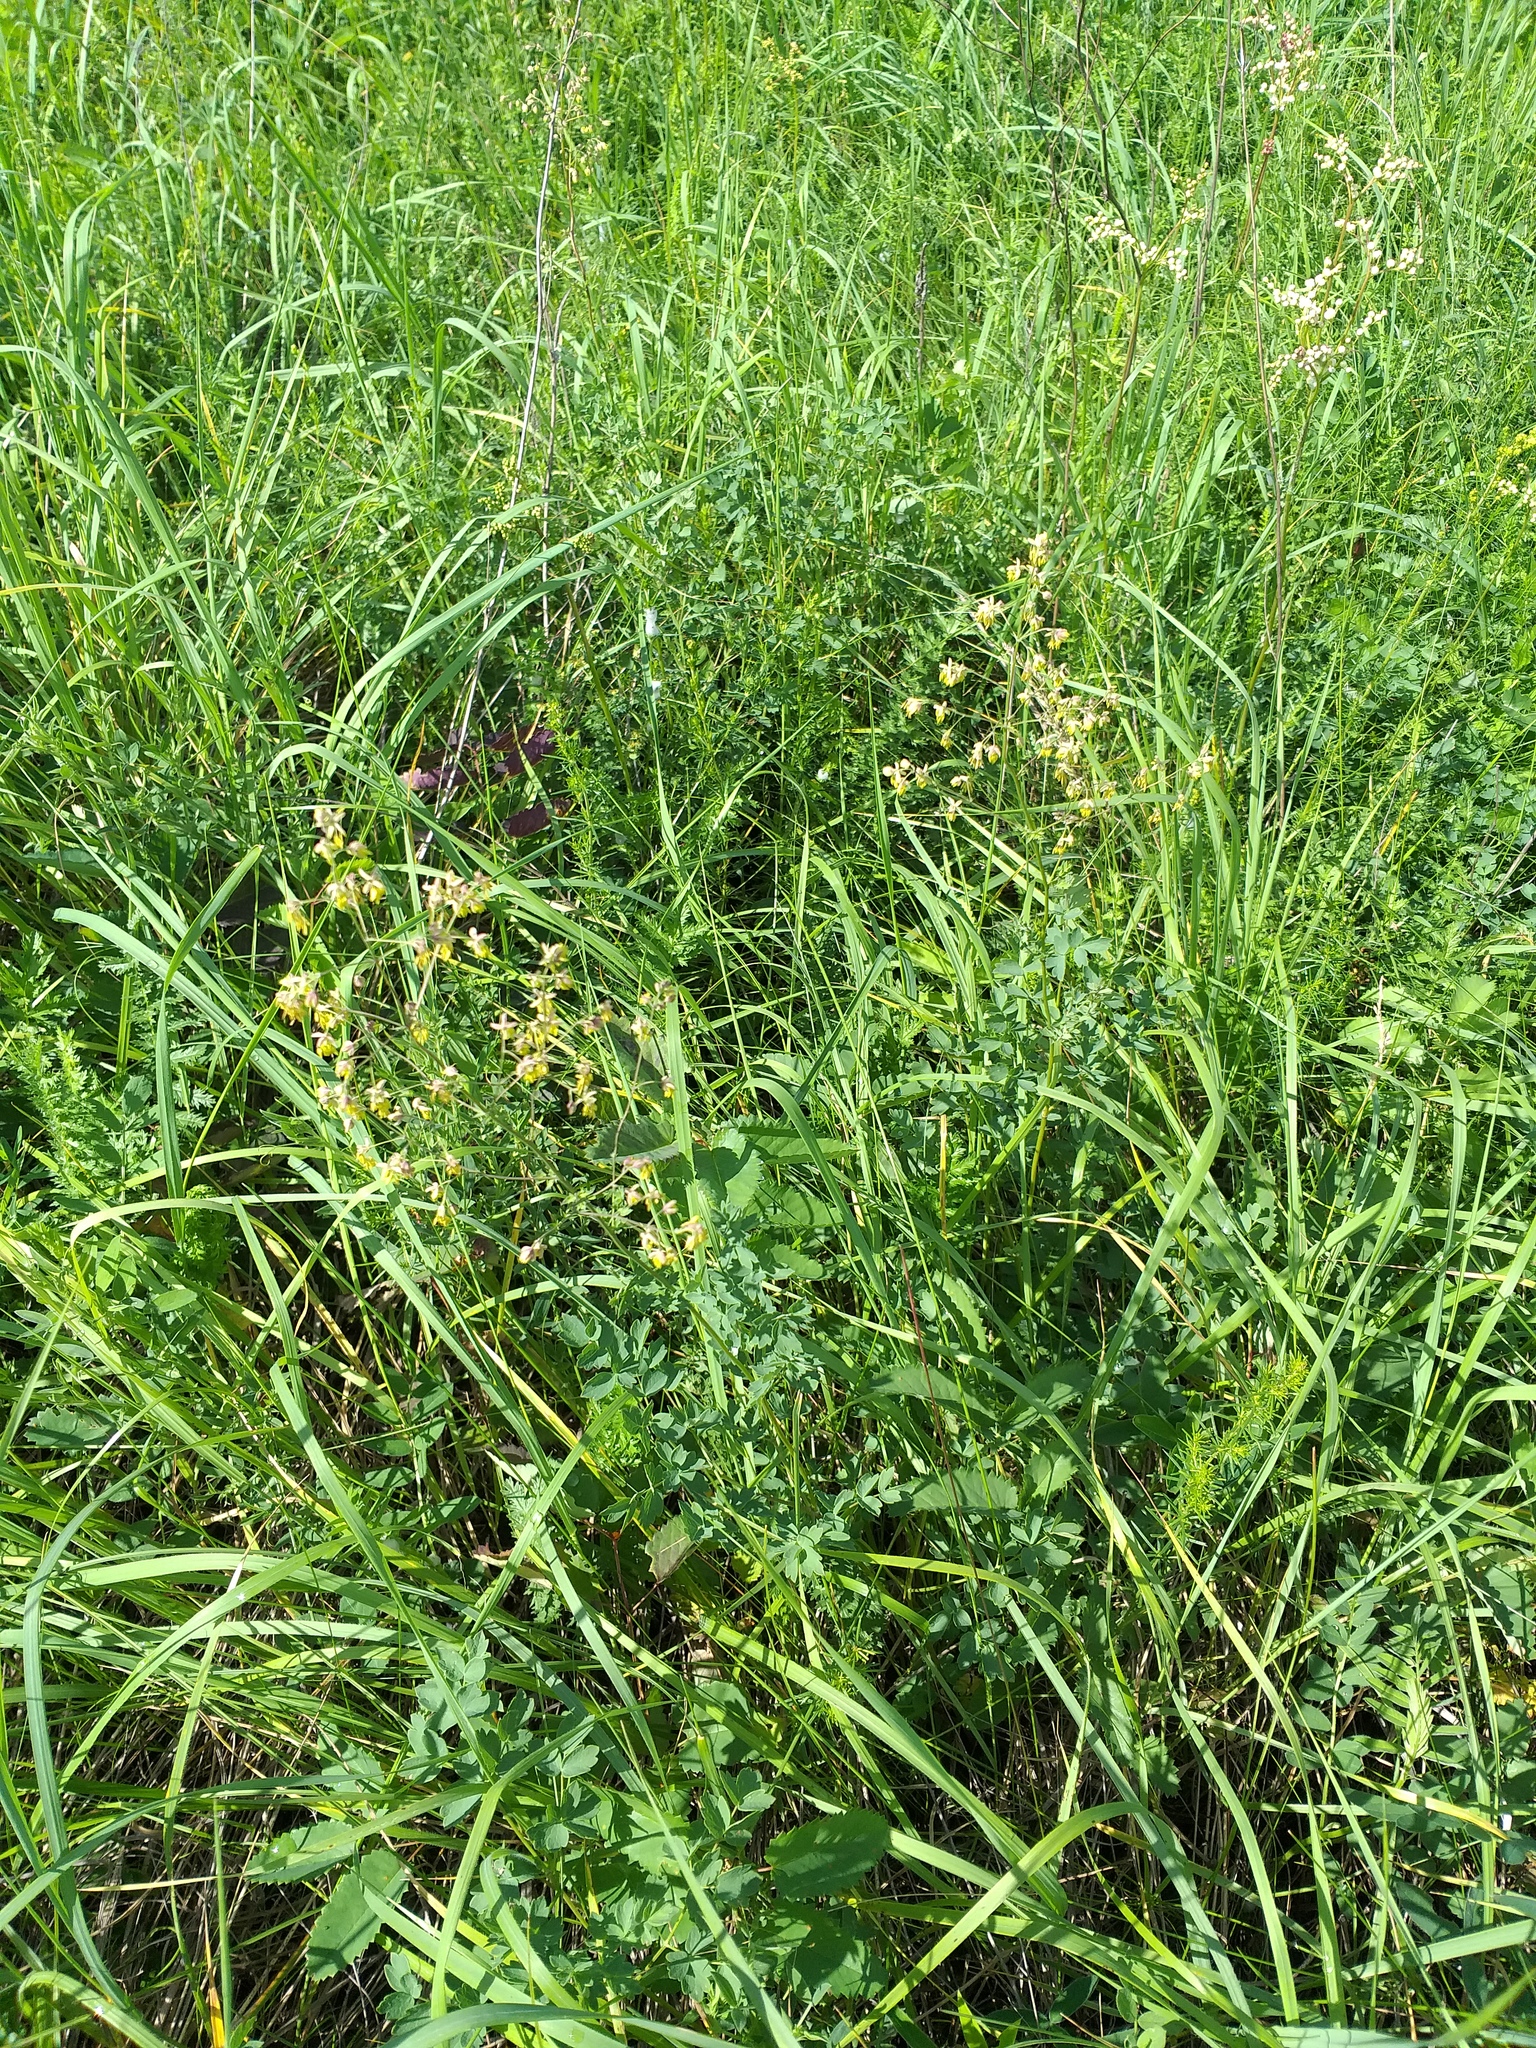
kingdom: Plantae
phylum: Tracheophyta
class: Magnoliopsida
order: Ranunculales
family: Ranunculaceae
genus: Thalictrum
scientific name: Thalictrum minus
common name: Lesser meadow-rue
